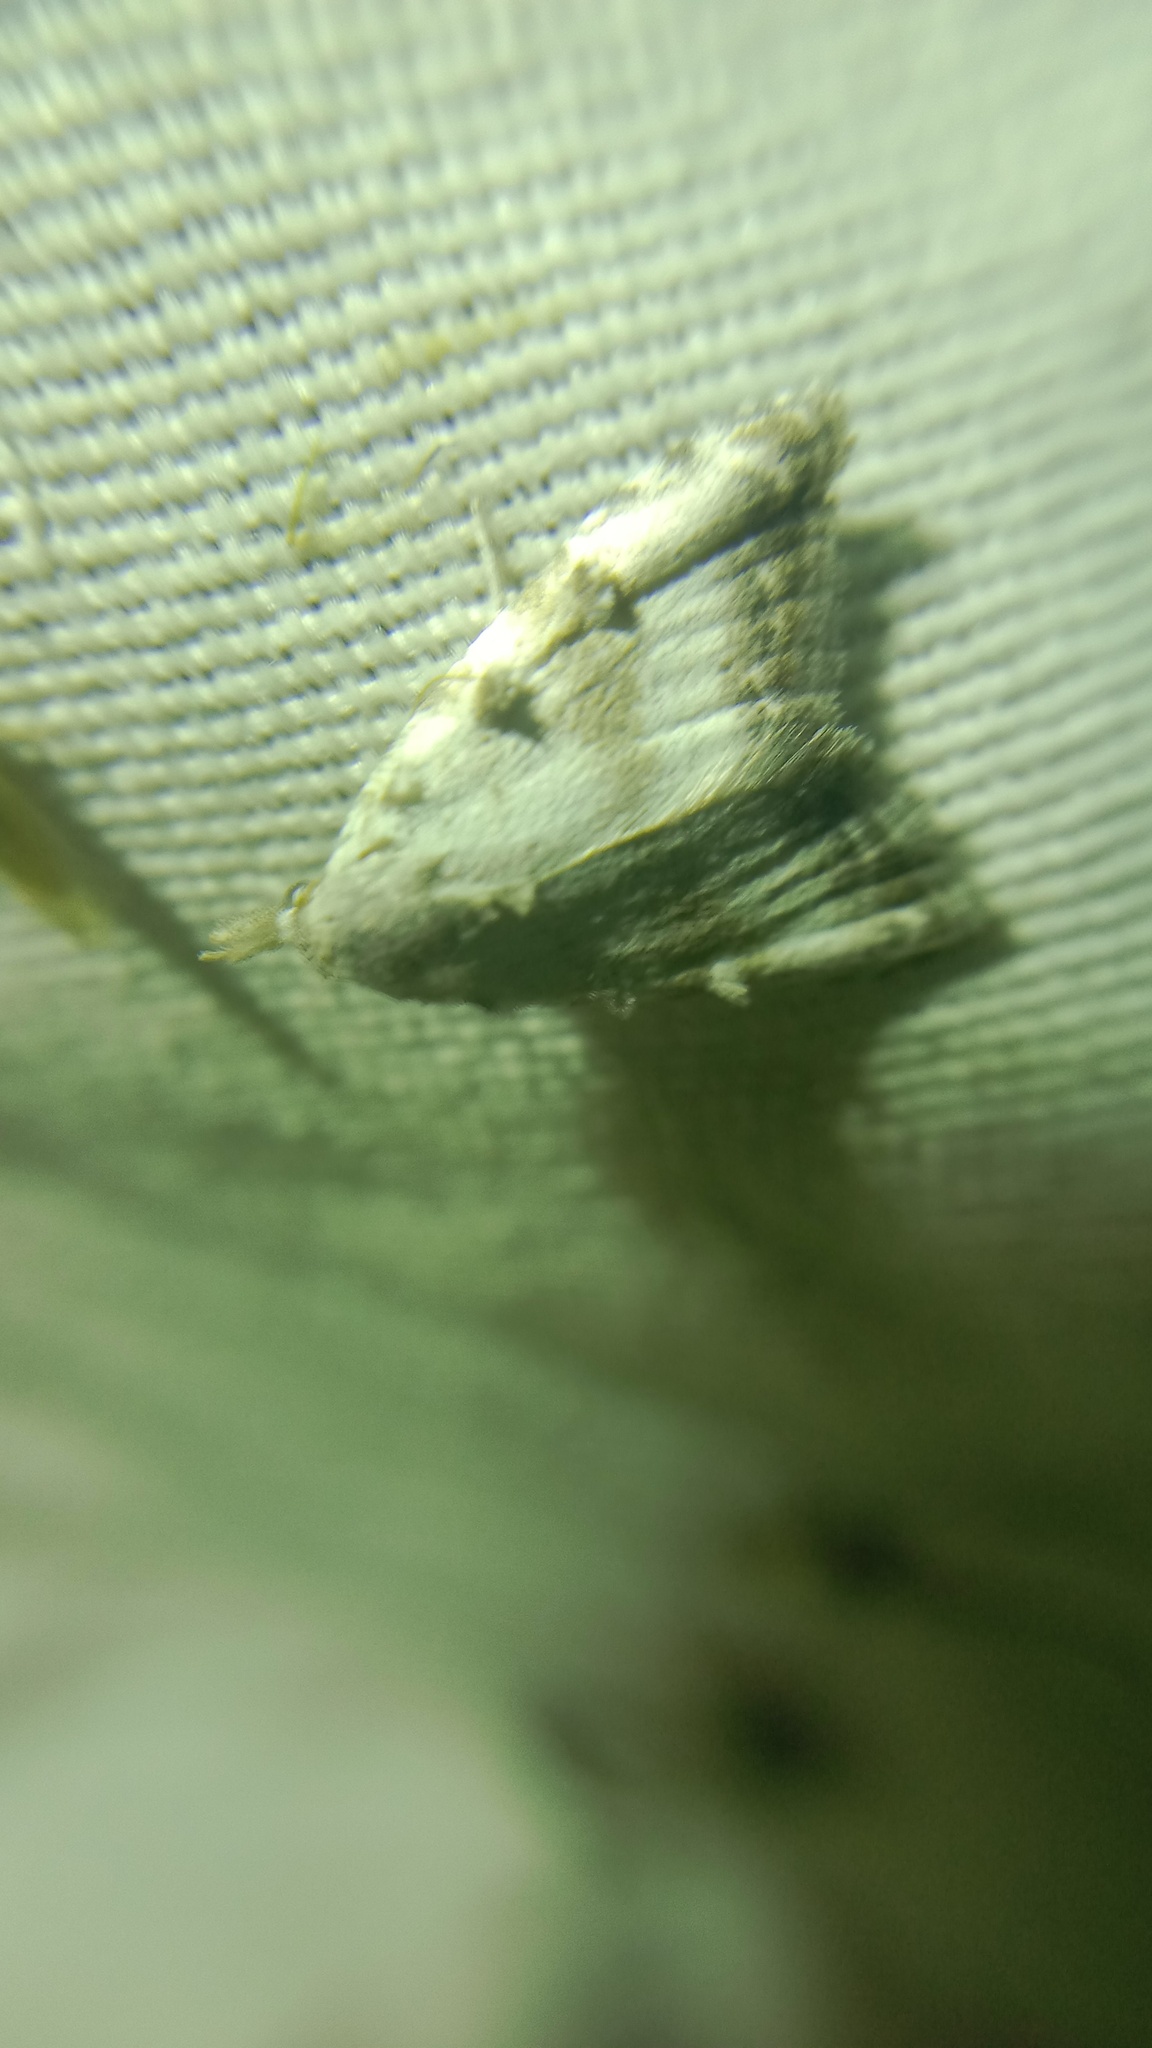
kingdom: Animalia
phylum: Arthropoda
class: Insecta
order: Lepidoptera
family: Nolidae
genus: Nola
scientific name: Nola cristatula
